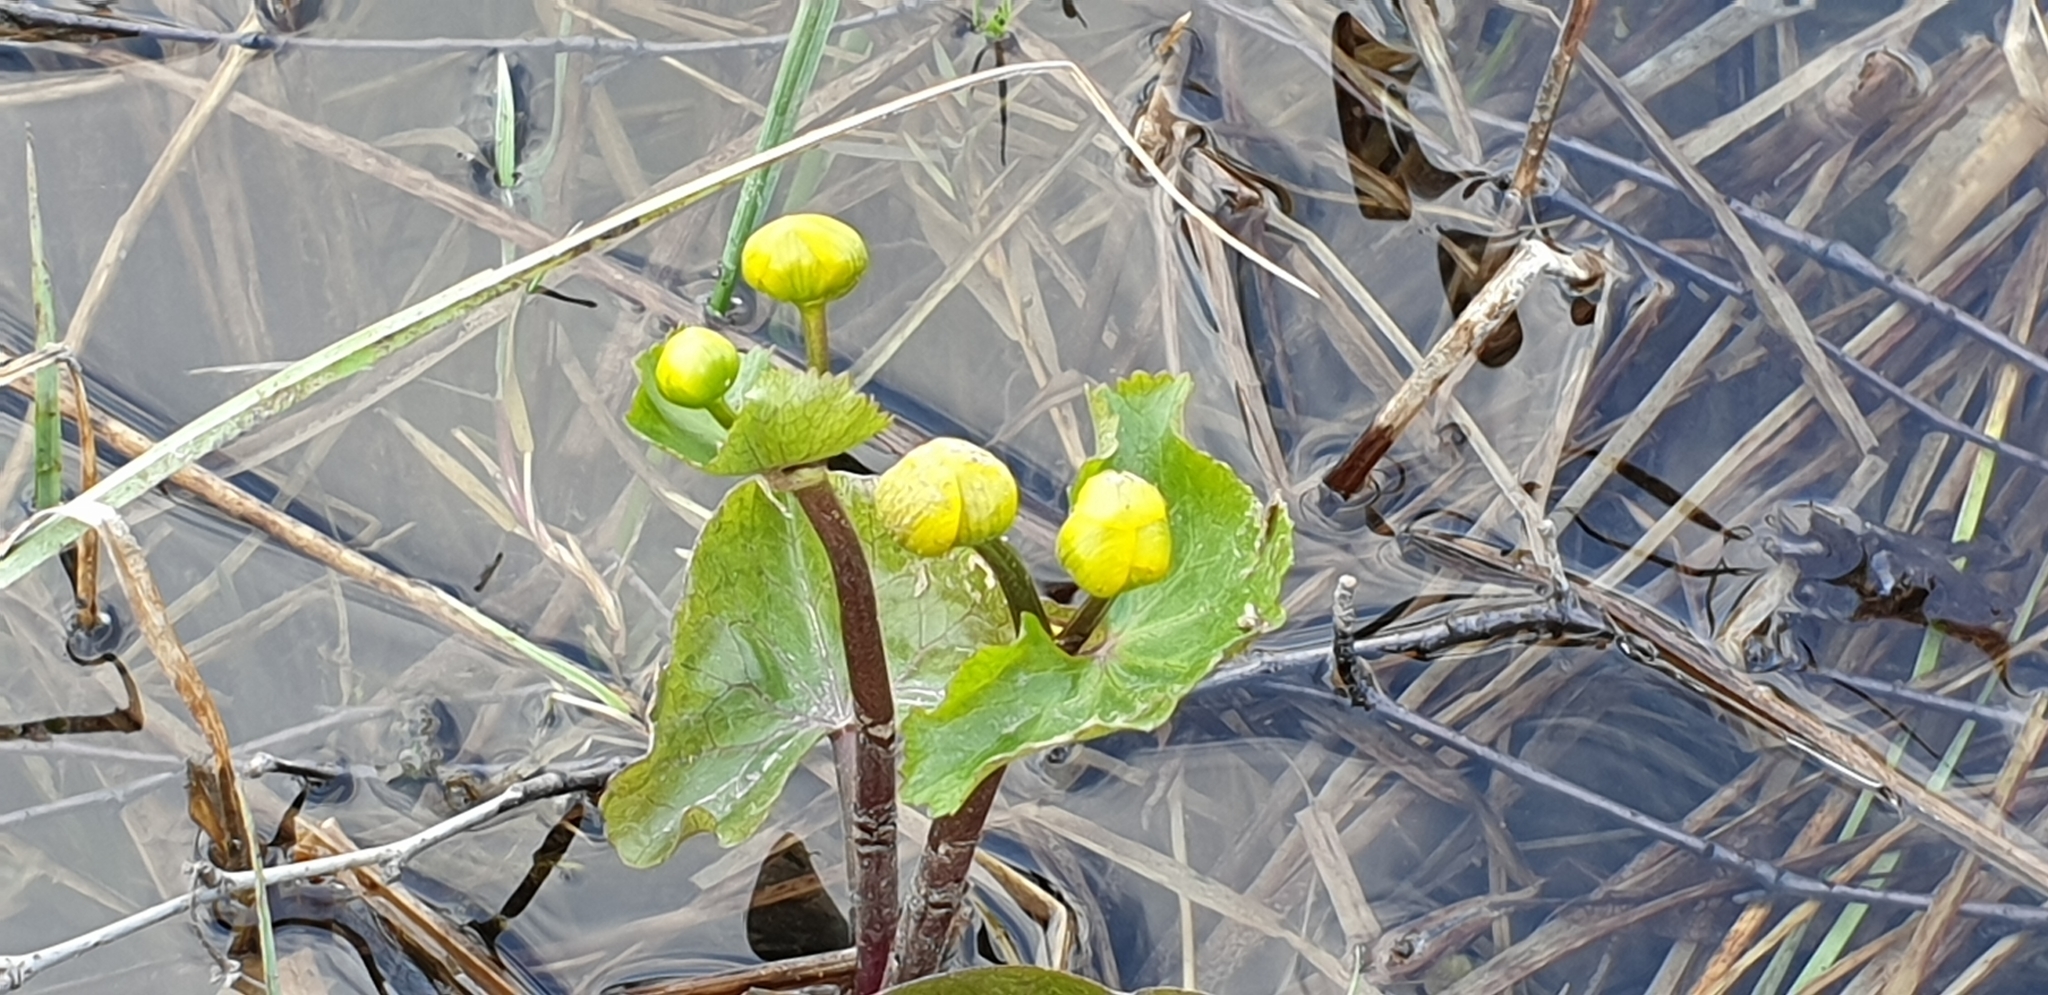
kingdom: Plantae
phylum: Tracheophyta
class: Magnoliopsida
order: Ranunculales
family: Ranunculaceae
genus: Caltha
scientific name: Caltha palustris
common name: Marsh marigold
